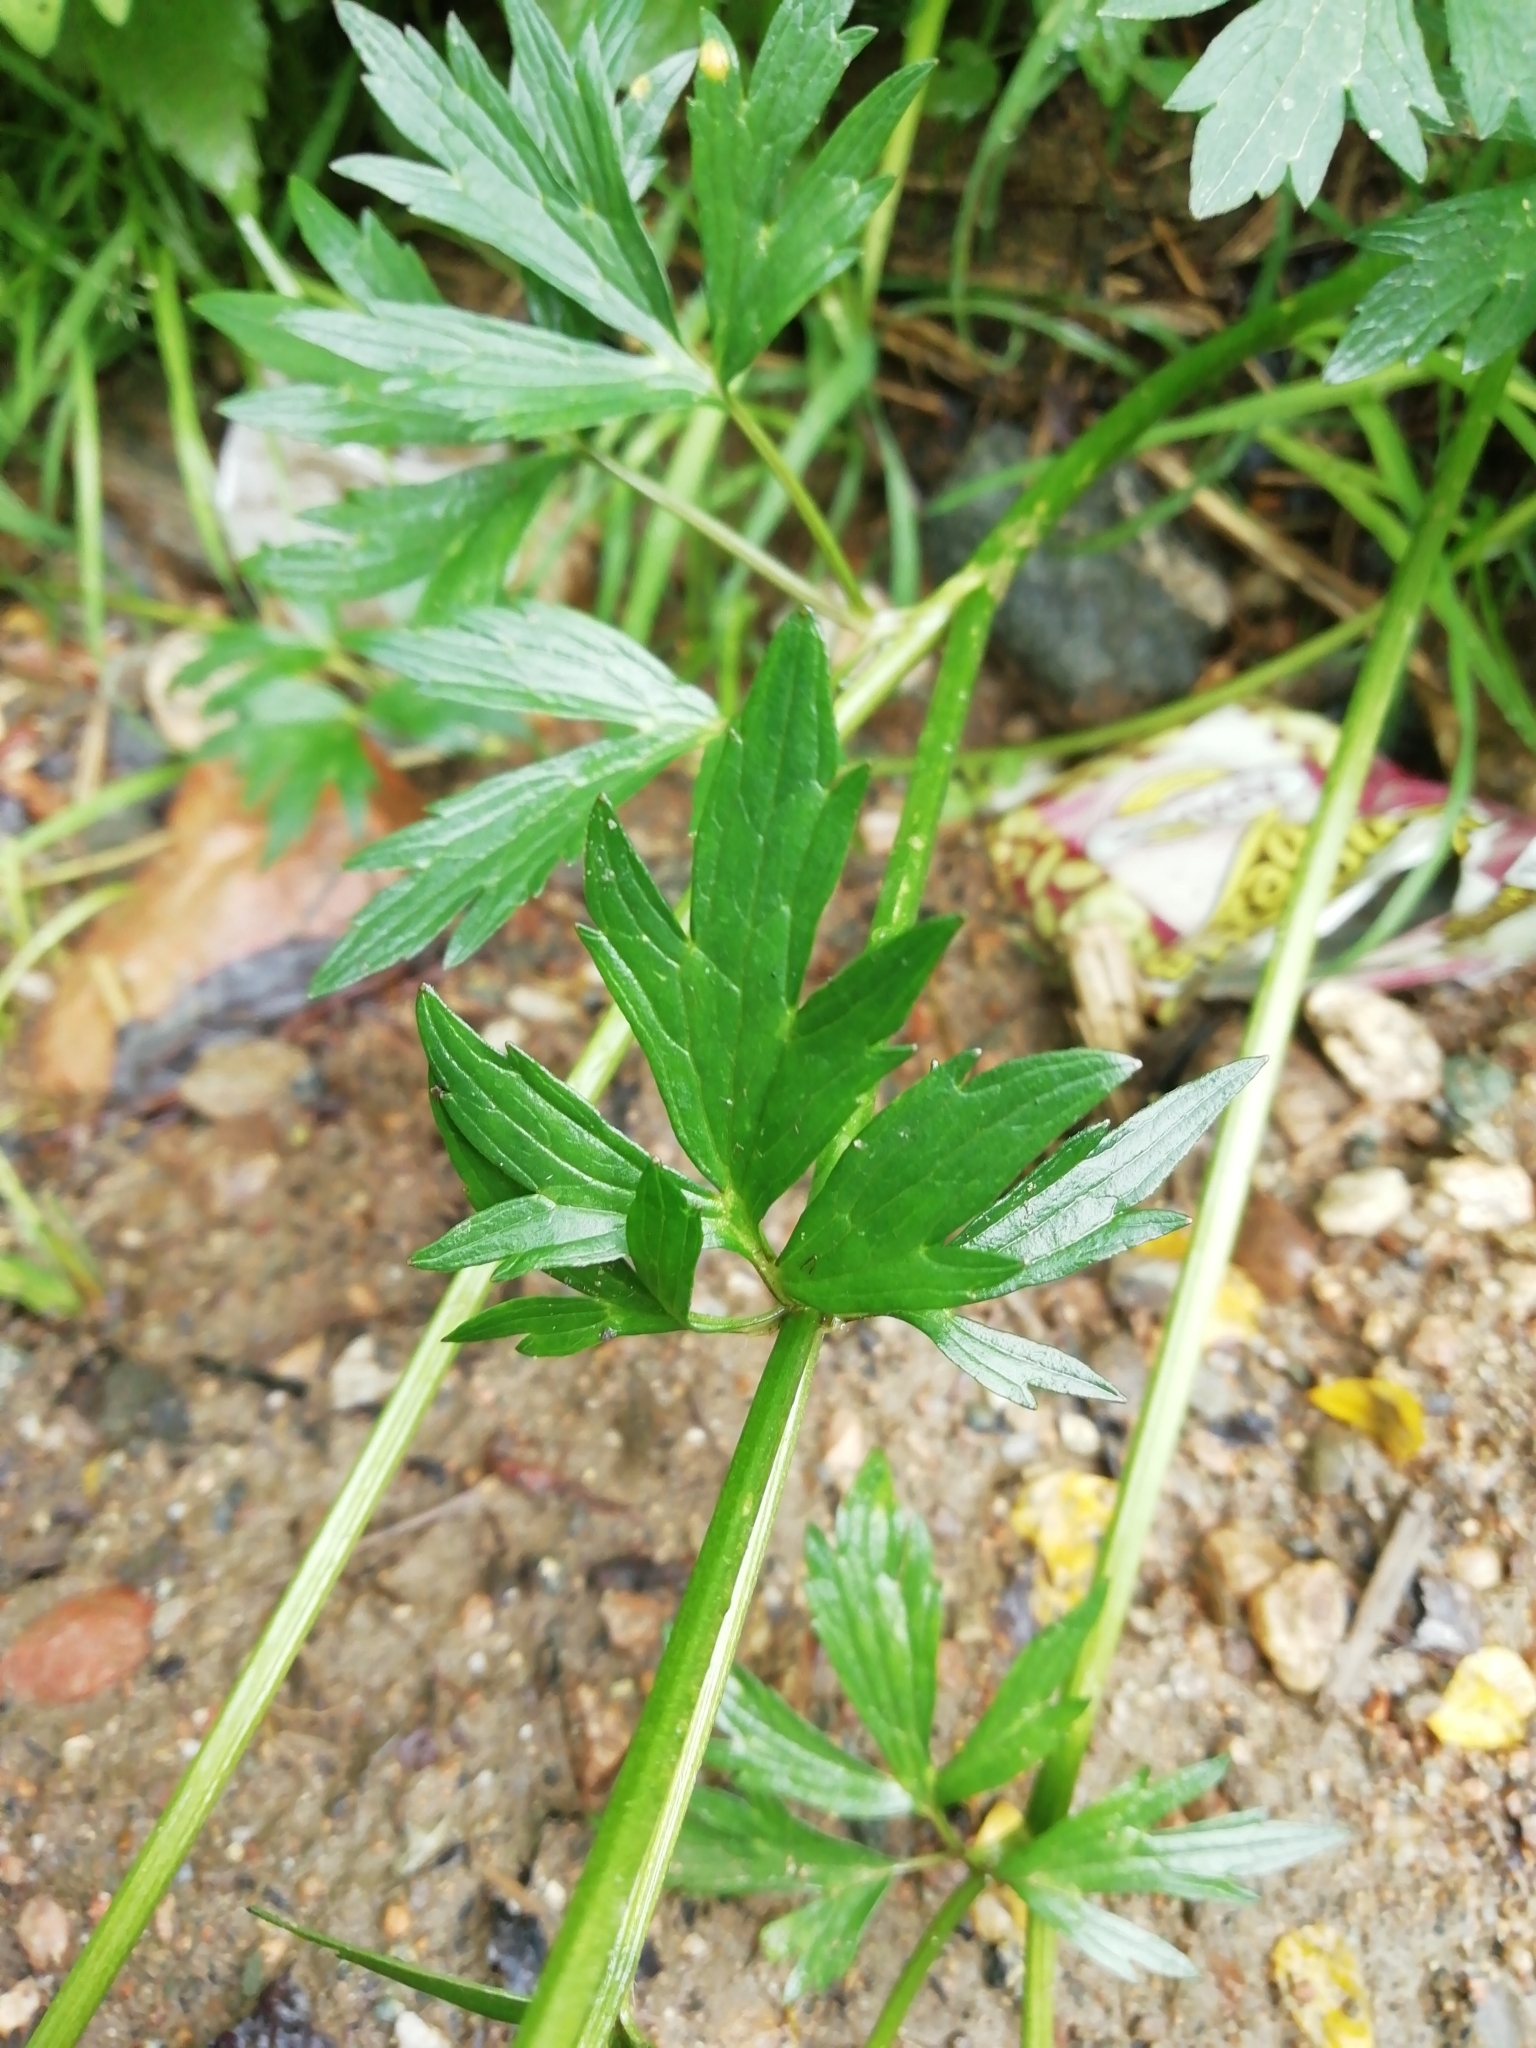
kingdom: Plantae
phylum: Tracheophyta
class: Magnoliopsida
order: Ranunculales
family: Ranunculaceae
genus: Ranunculus
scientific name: Ranunculus repens
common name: Creeping buttercup
